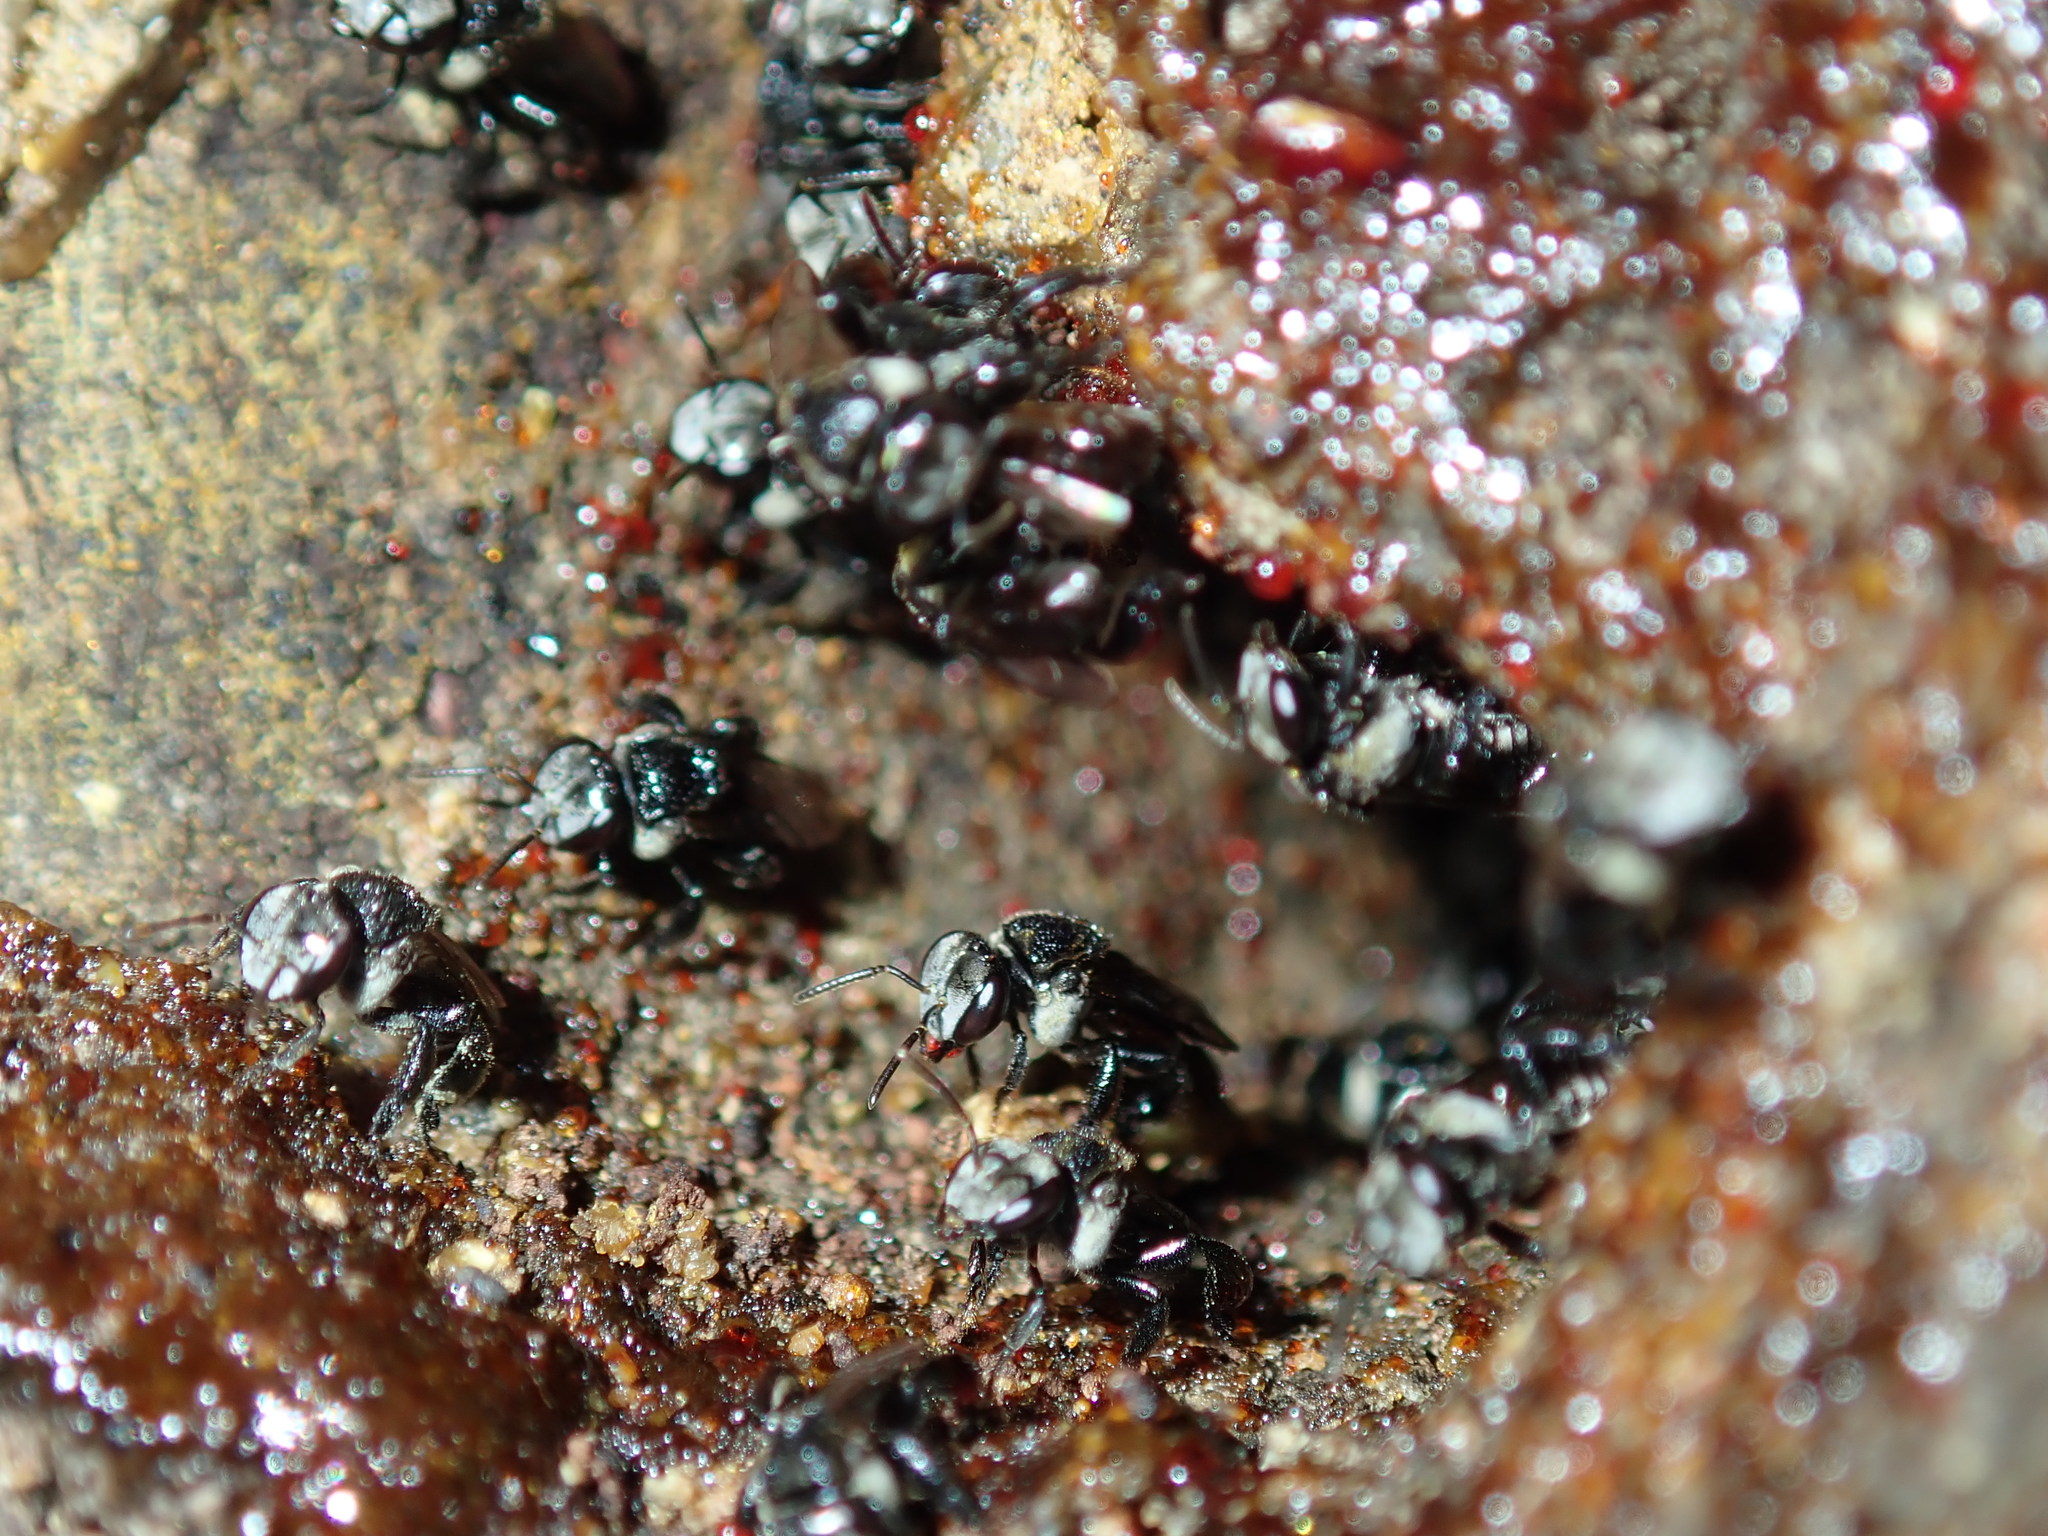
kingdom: Animalia
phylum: Arthropoda
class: Insecta
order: Hymenoptera
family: Apidae
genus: Tetragonula
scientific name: Tetragonula carbonaria
